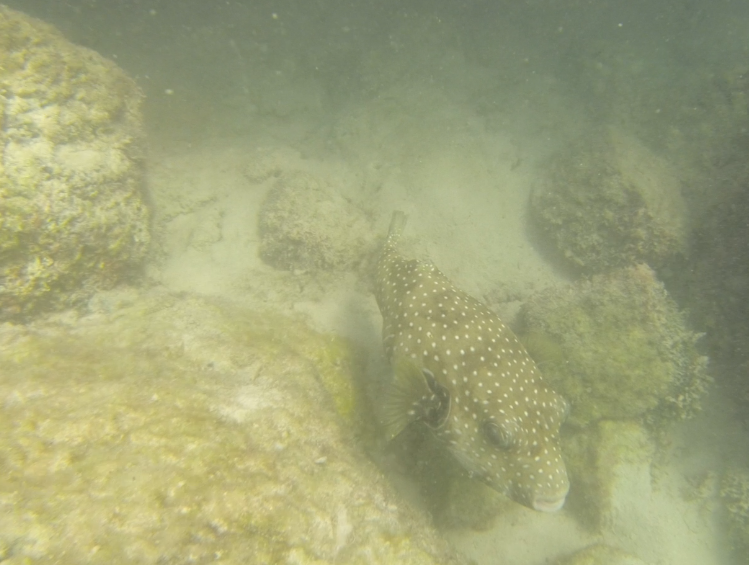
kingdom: Animalia
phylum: Chordata
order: Tetraodontiformes
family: Tetraodontidae
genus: Arothron
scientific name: Arothron hispidus
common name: Stripebelly puffer
